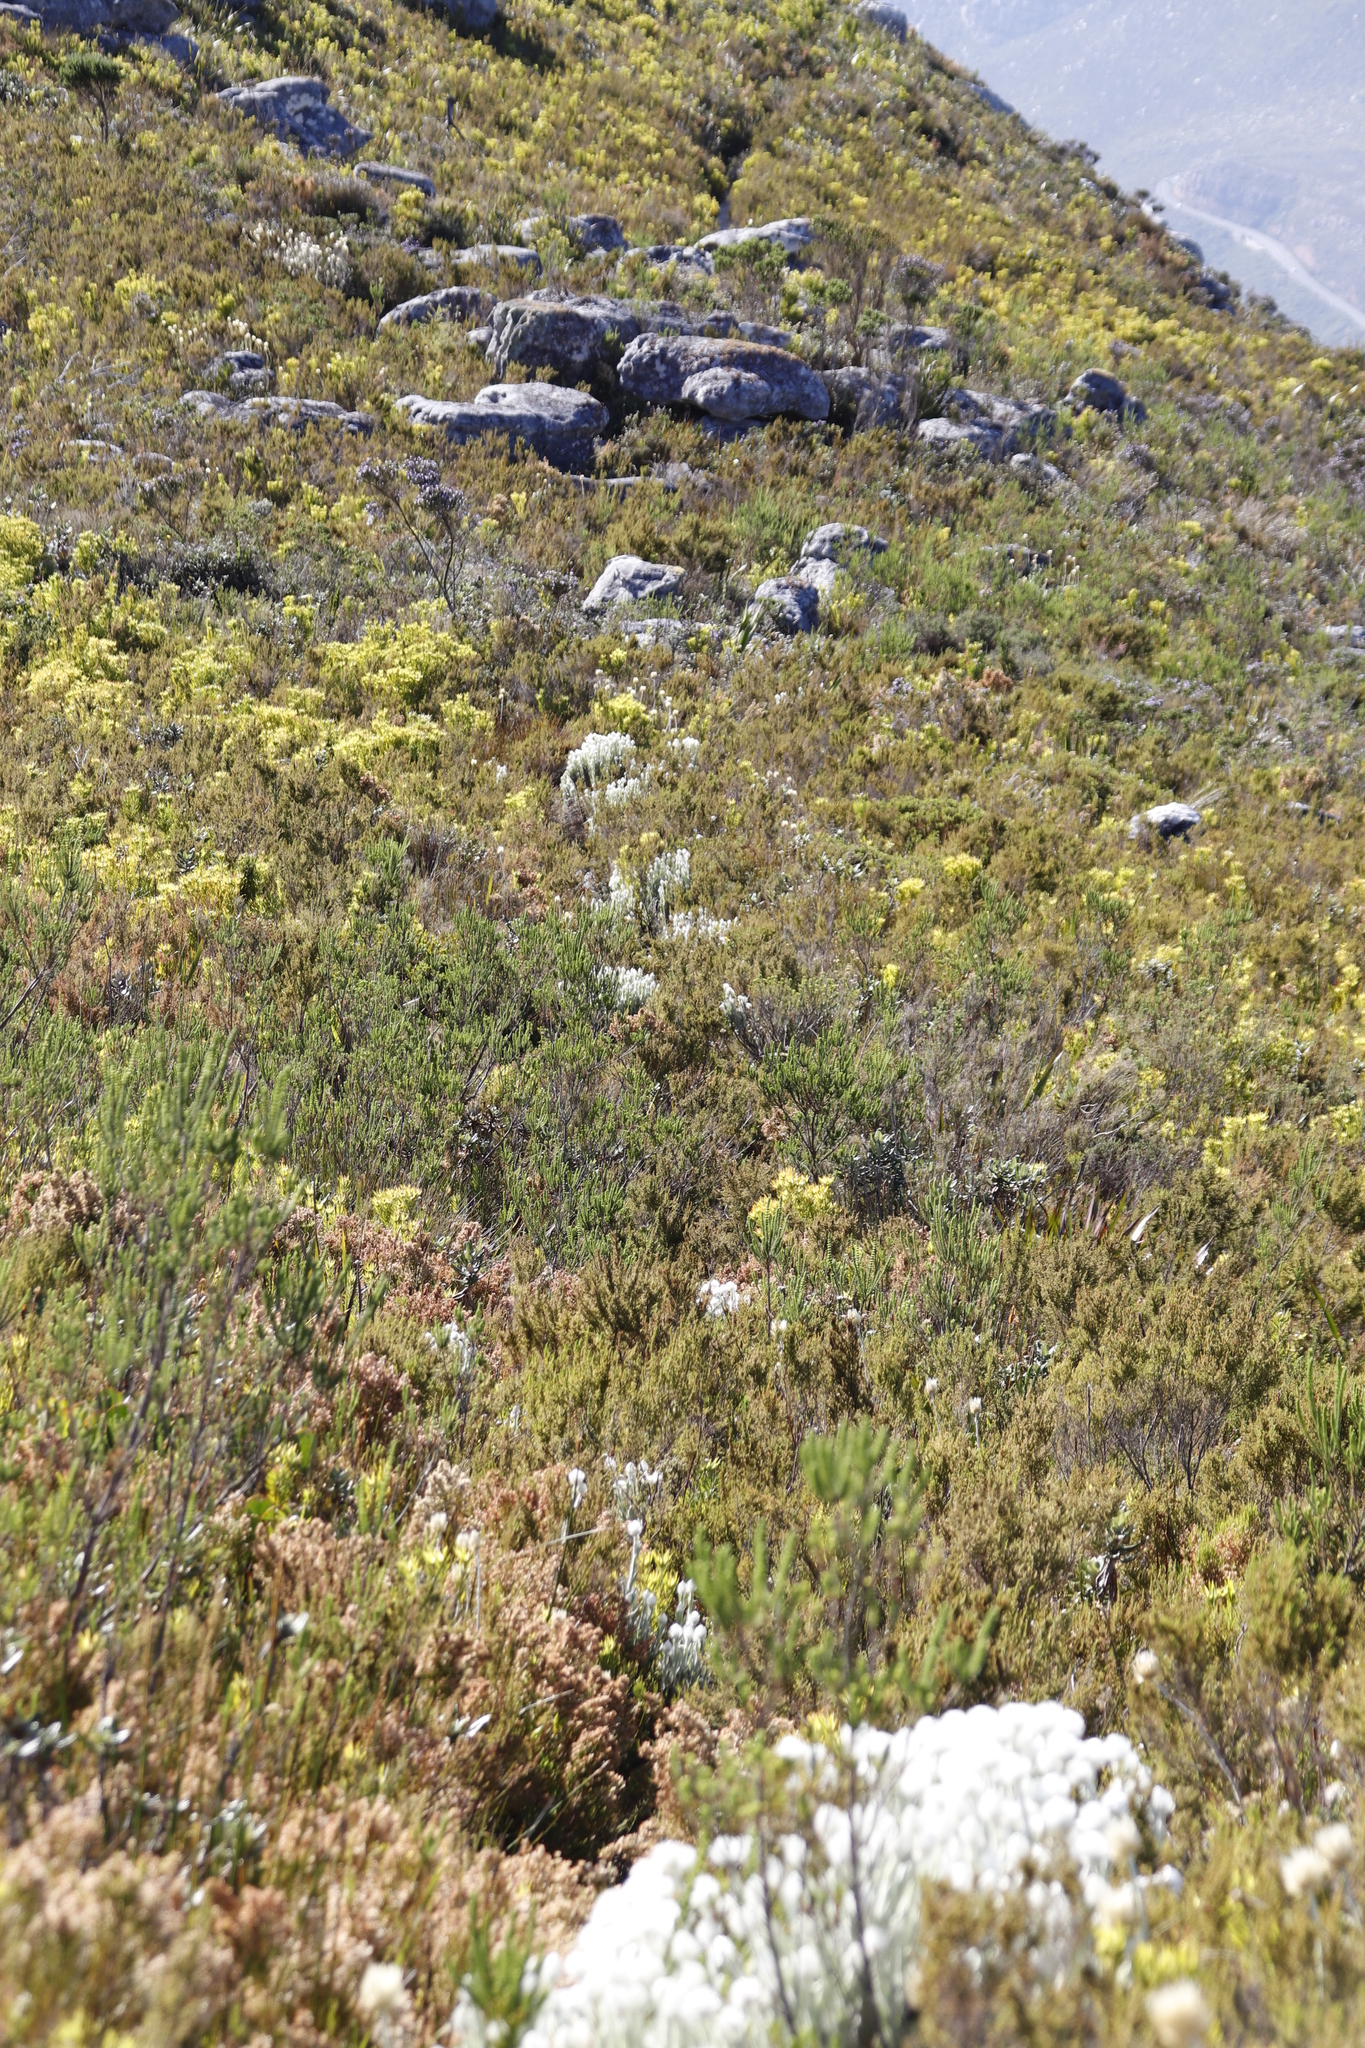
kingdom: Plantae
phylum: Tracheophyta
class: Magnoliopsida
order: Asterales
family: Asteraceae
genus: Syncarpha
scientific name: Syncarpha vestita
